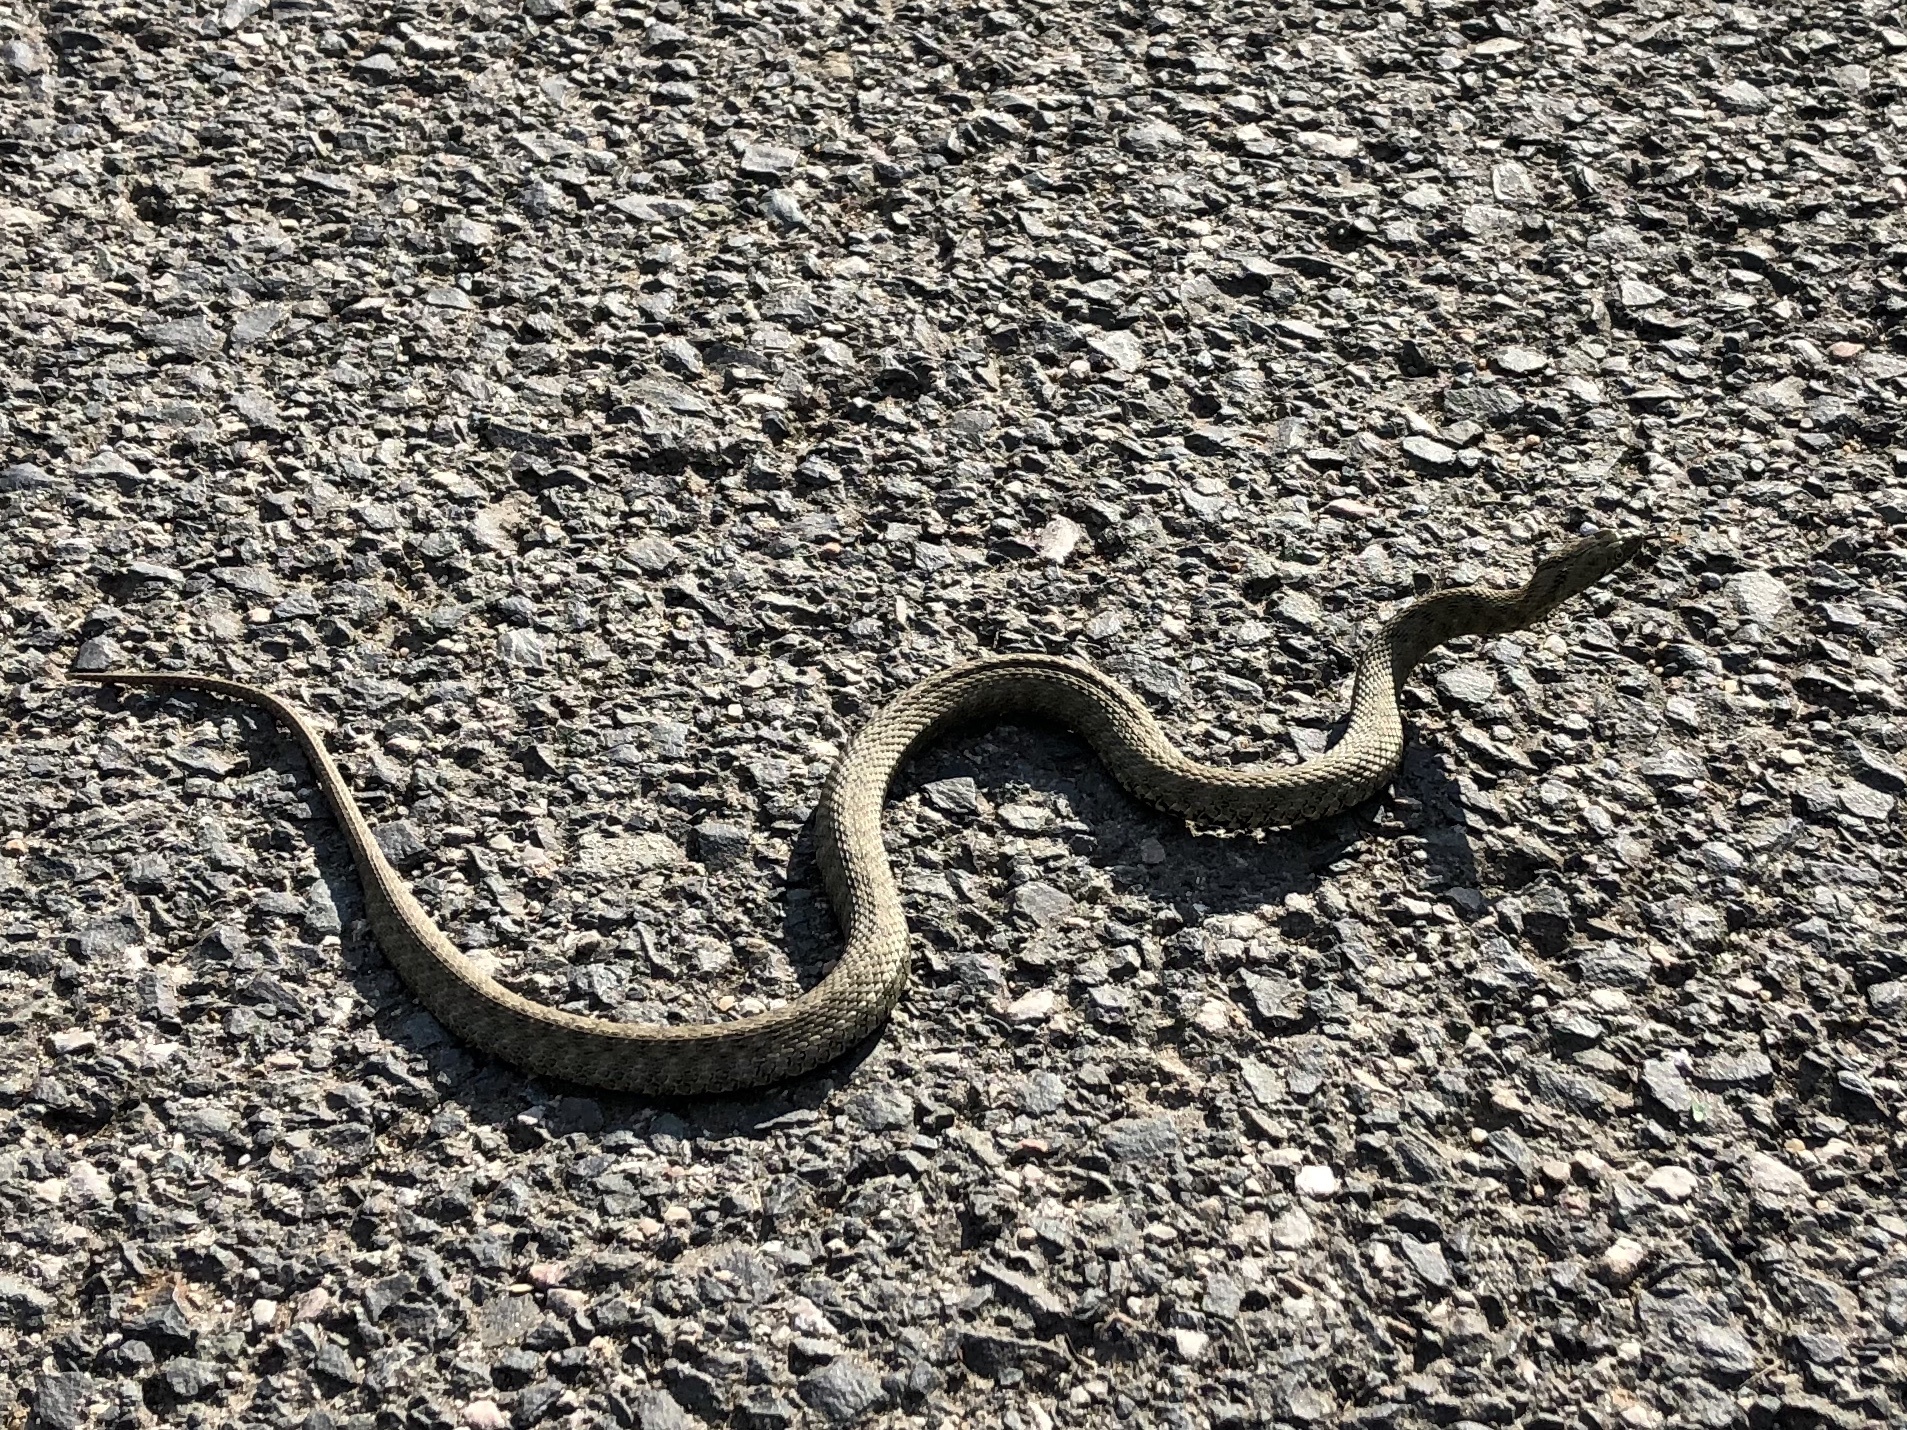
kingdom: Animalia
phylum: Chordata
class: Squamata
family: Colubridae
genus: Natrix
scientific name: Natrix tessellata
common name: Dice snake
